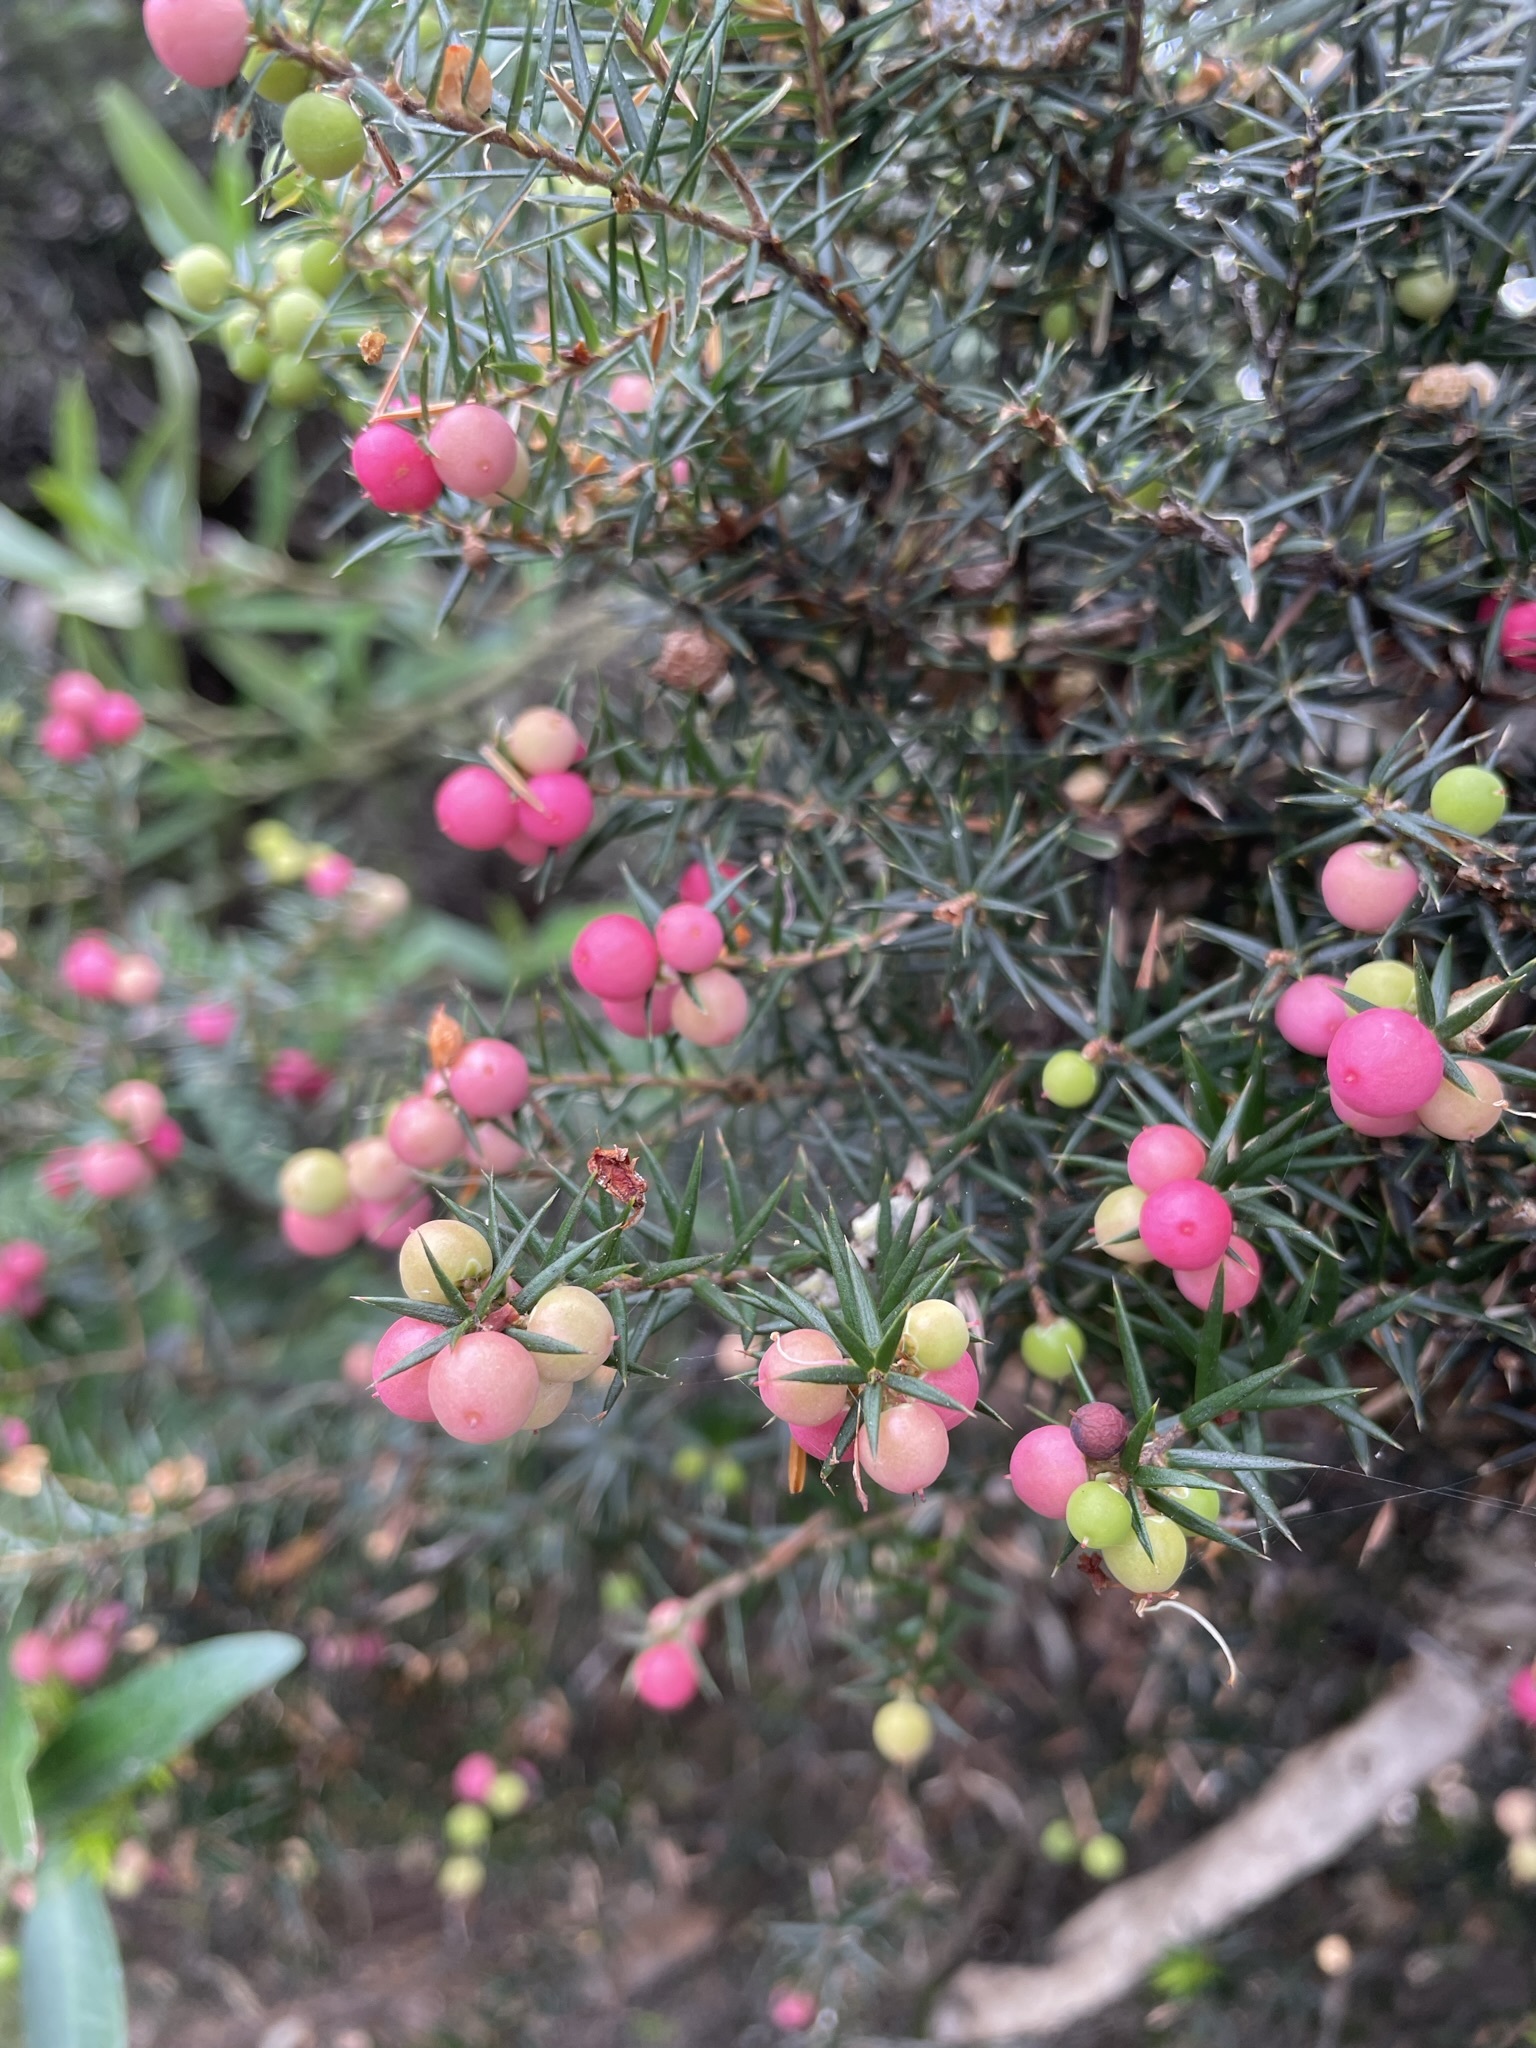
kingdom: Plantae
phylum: Tracheophyta
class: Magnoliopsida
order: Ericales
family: Ericaceae
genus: Leptecophylla
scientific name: Leptecophylla oxycedrus
